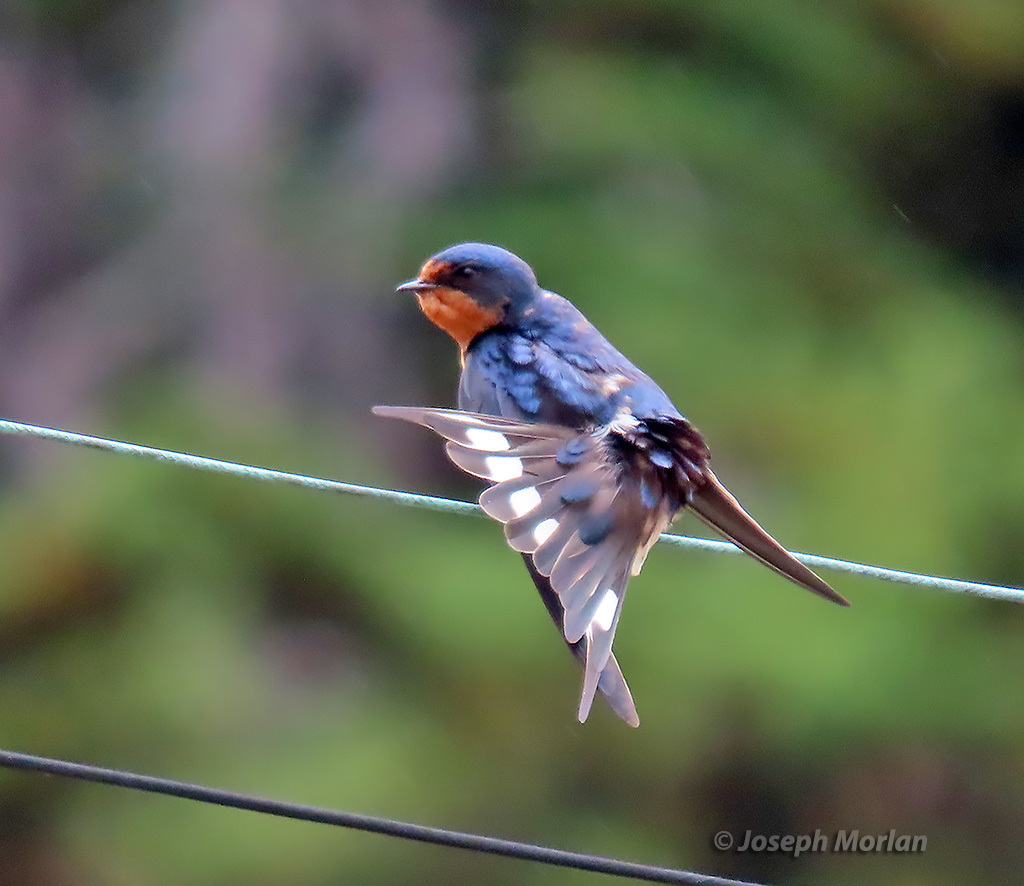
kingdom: Animalia
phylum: Chordata
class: Aves
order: Passeriformes
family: Hirundinidae
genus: Hirundo
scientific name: Hirundo rustica
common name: Barn swallow
